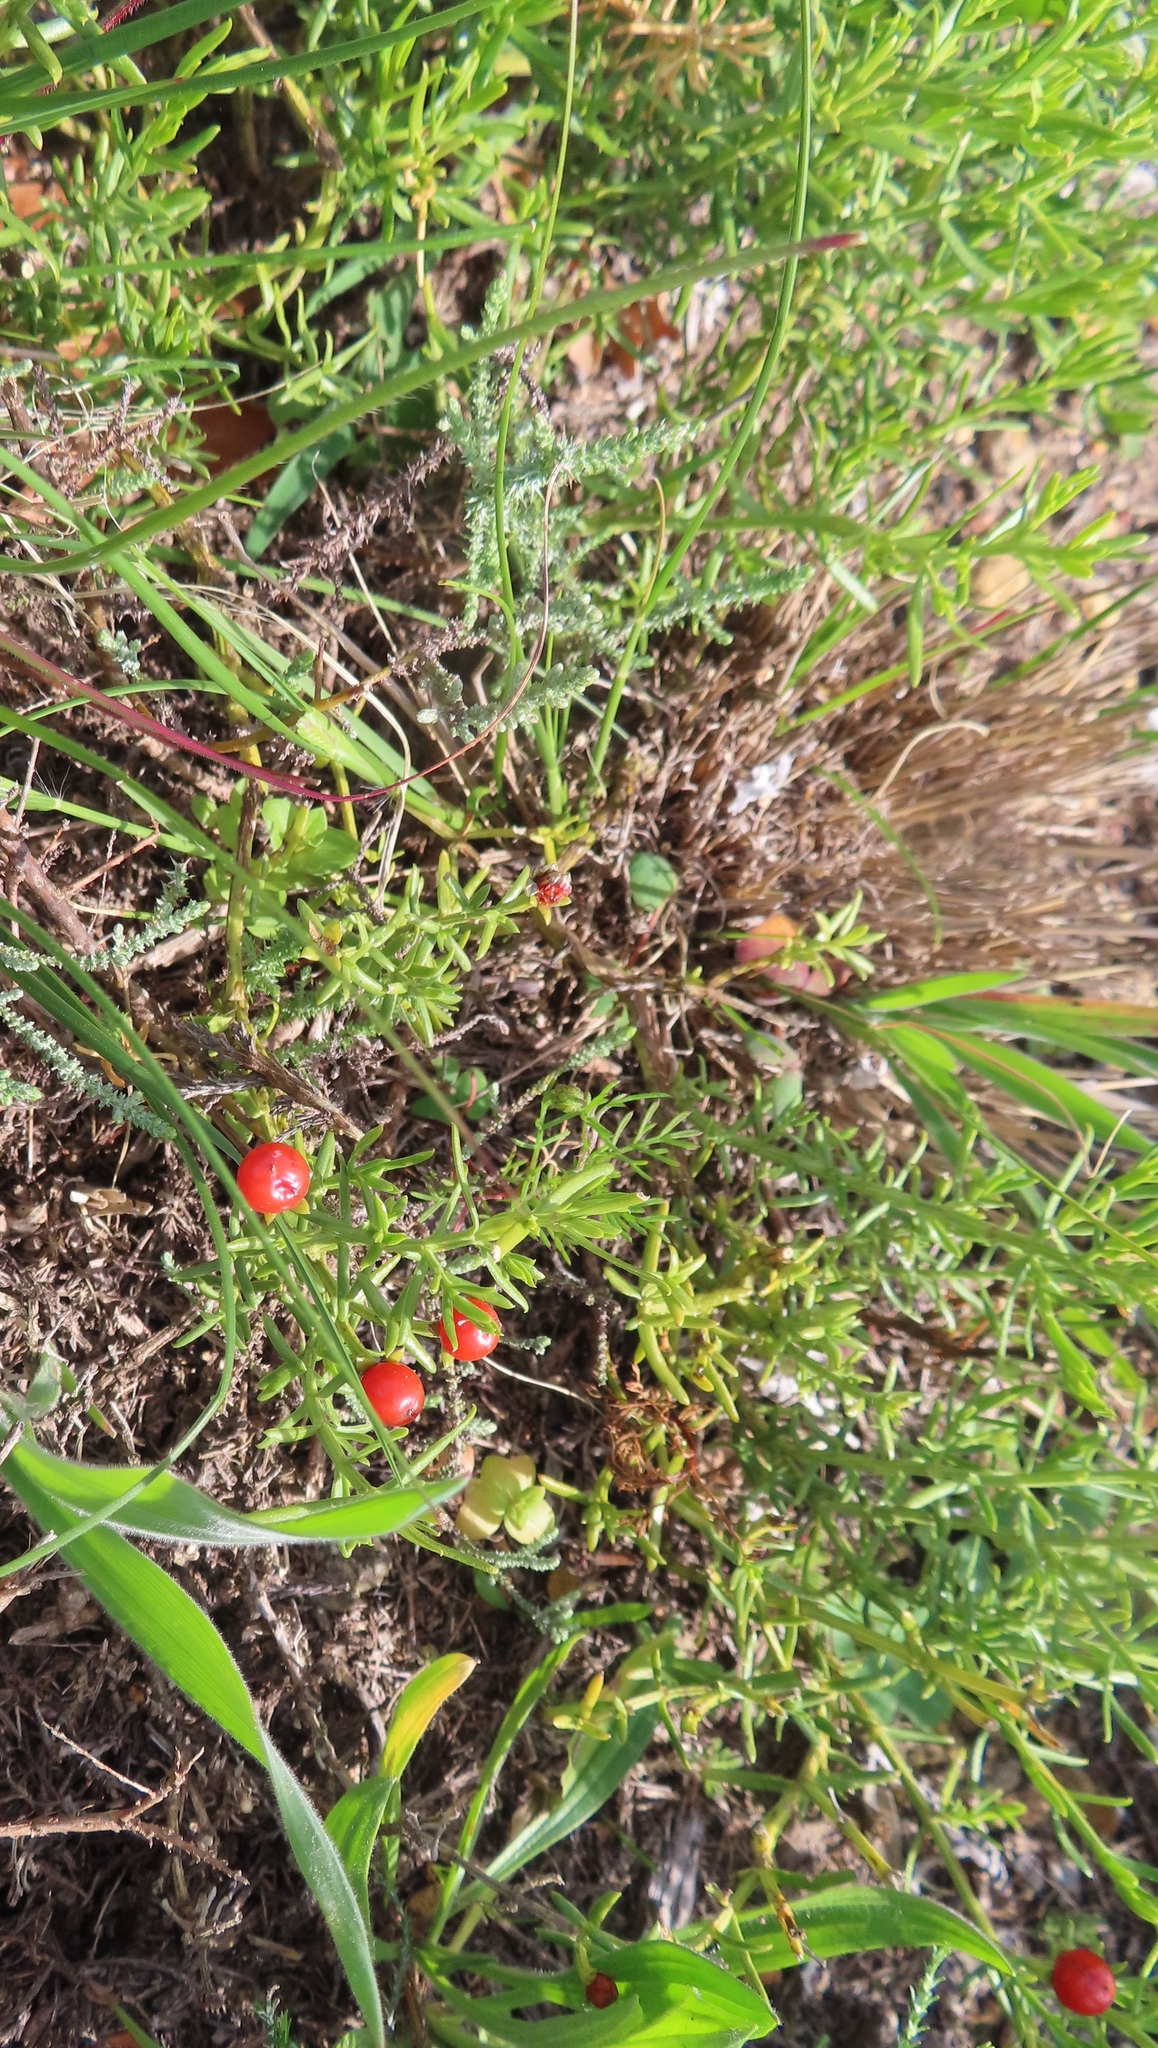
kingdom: Plantae
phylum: Tracheophyta
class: Magnoliopsida
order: Gentianales
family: Gentianaceae
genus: Chironia
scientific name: Chironia baccifera
